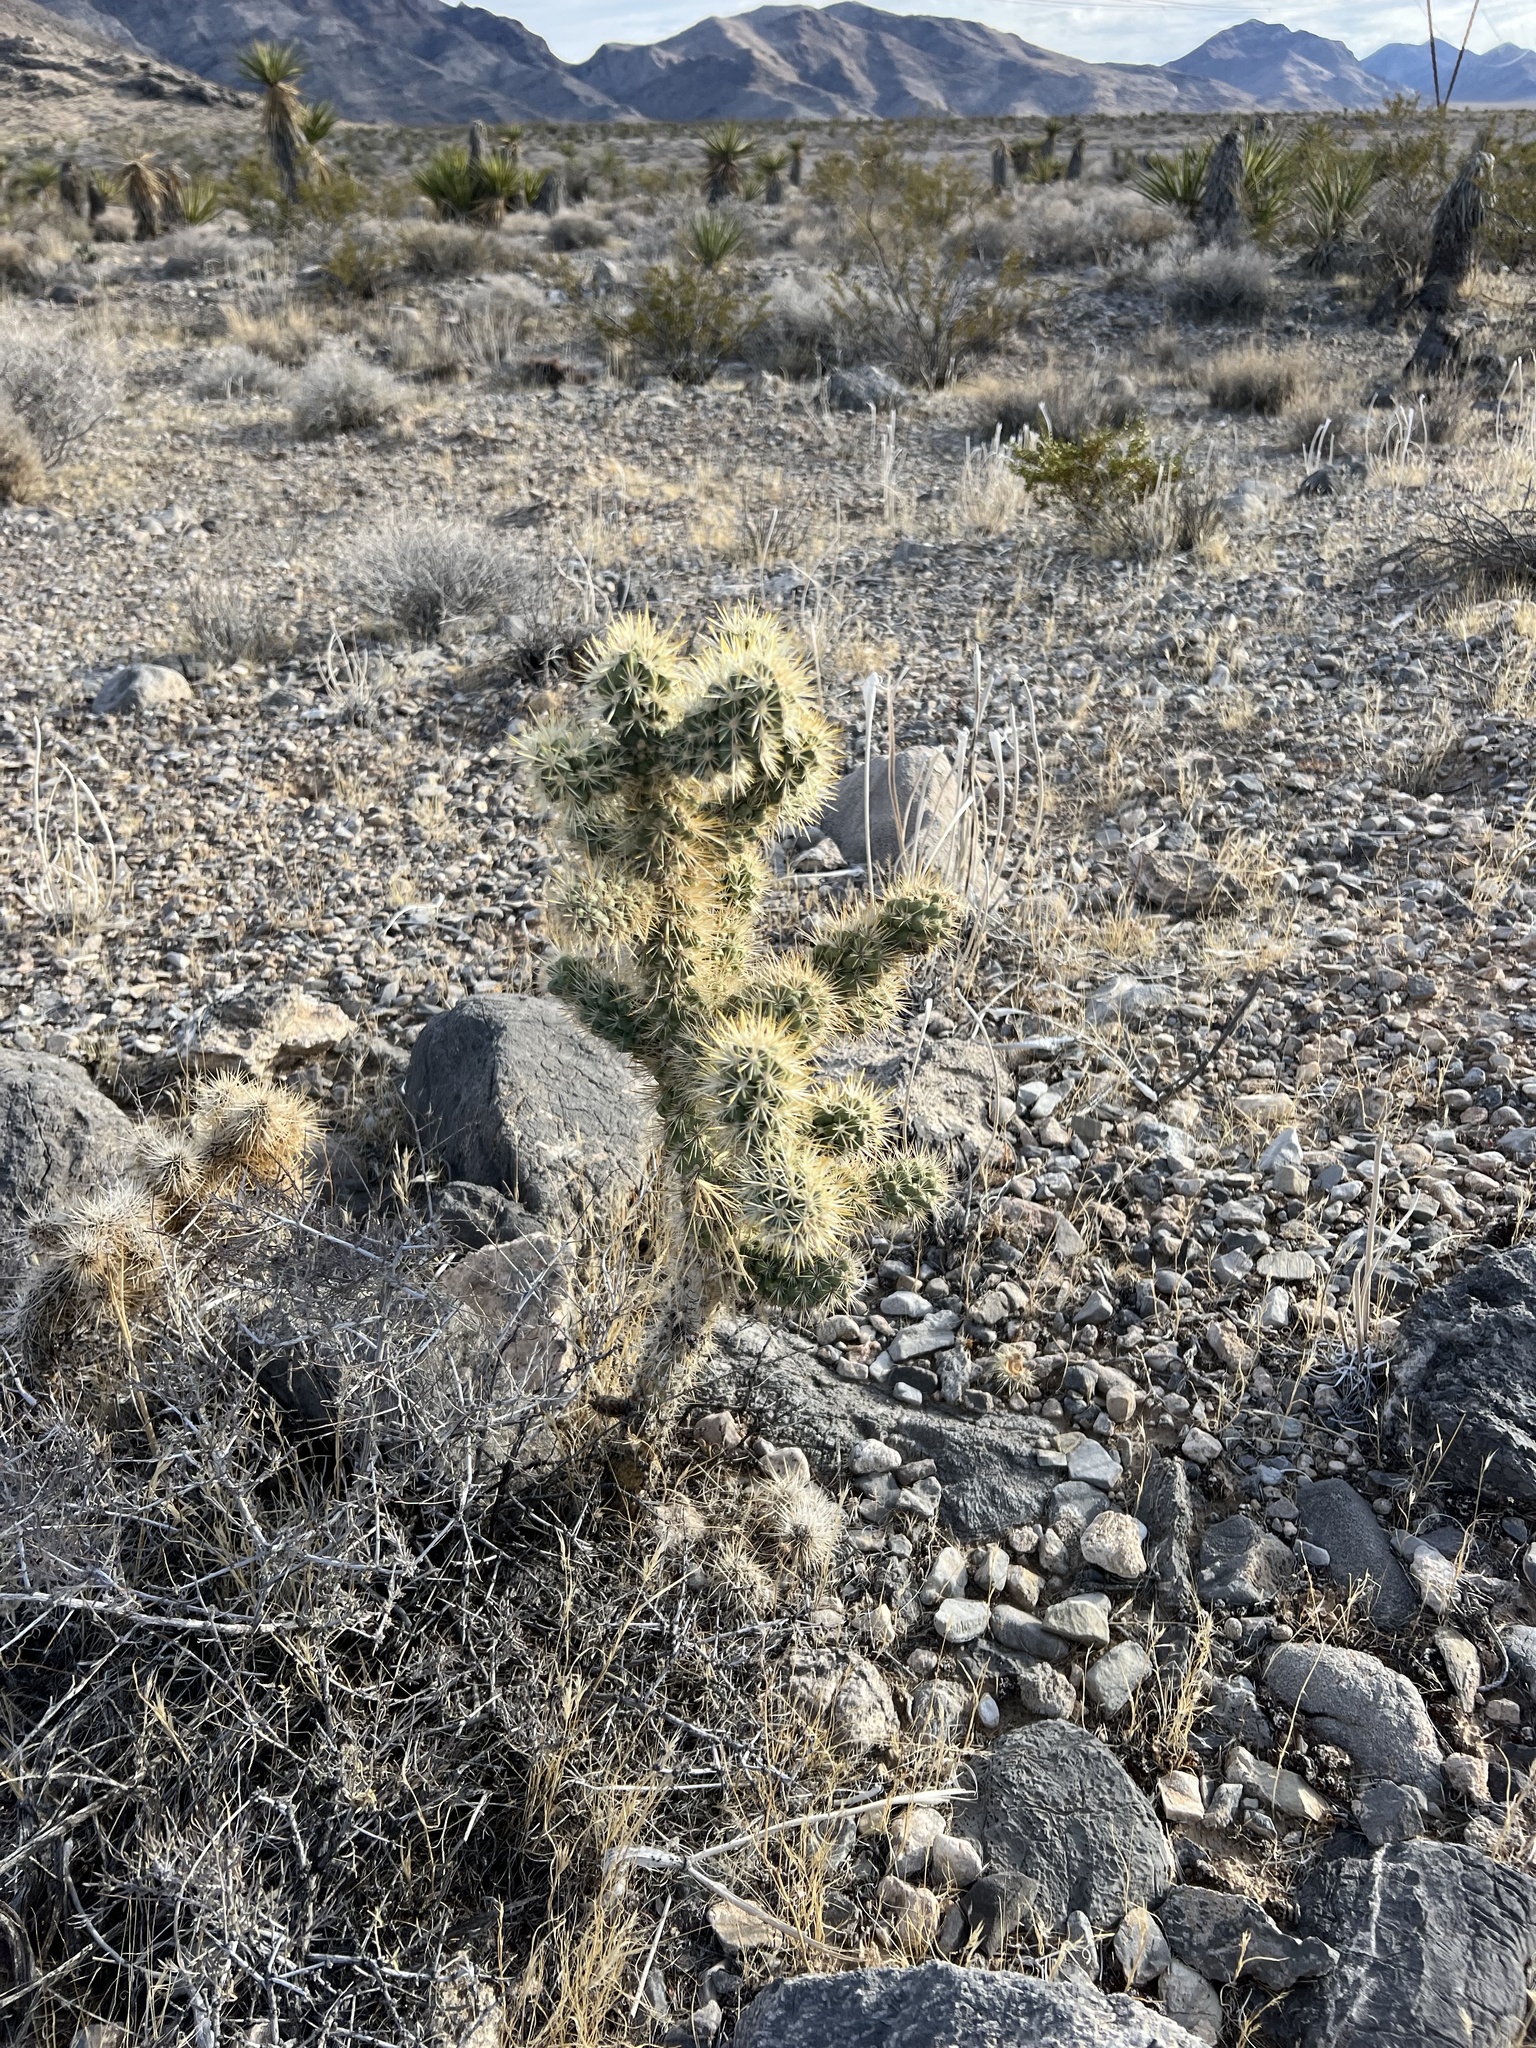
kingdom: Plantae
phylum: Tracheophyta
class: Magnoliopsida
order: Caryophyllales
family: Cactaceae
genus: Cylindropuntia
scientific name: Cylindropuntia echinocarpa
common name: Ground cholla
